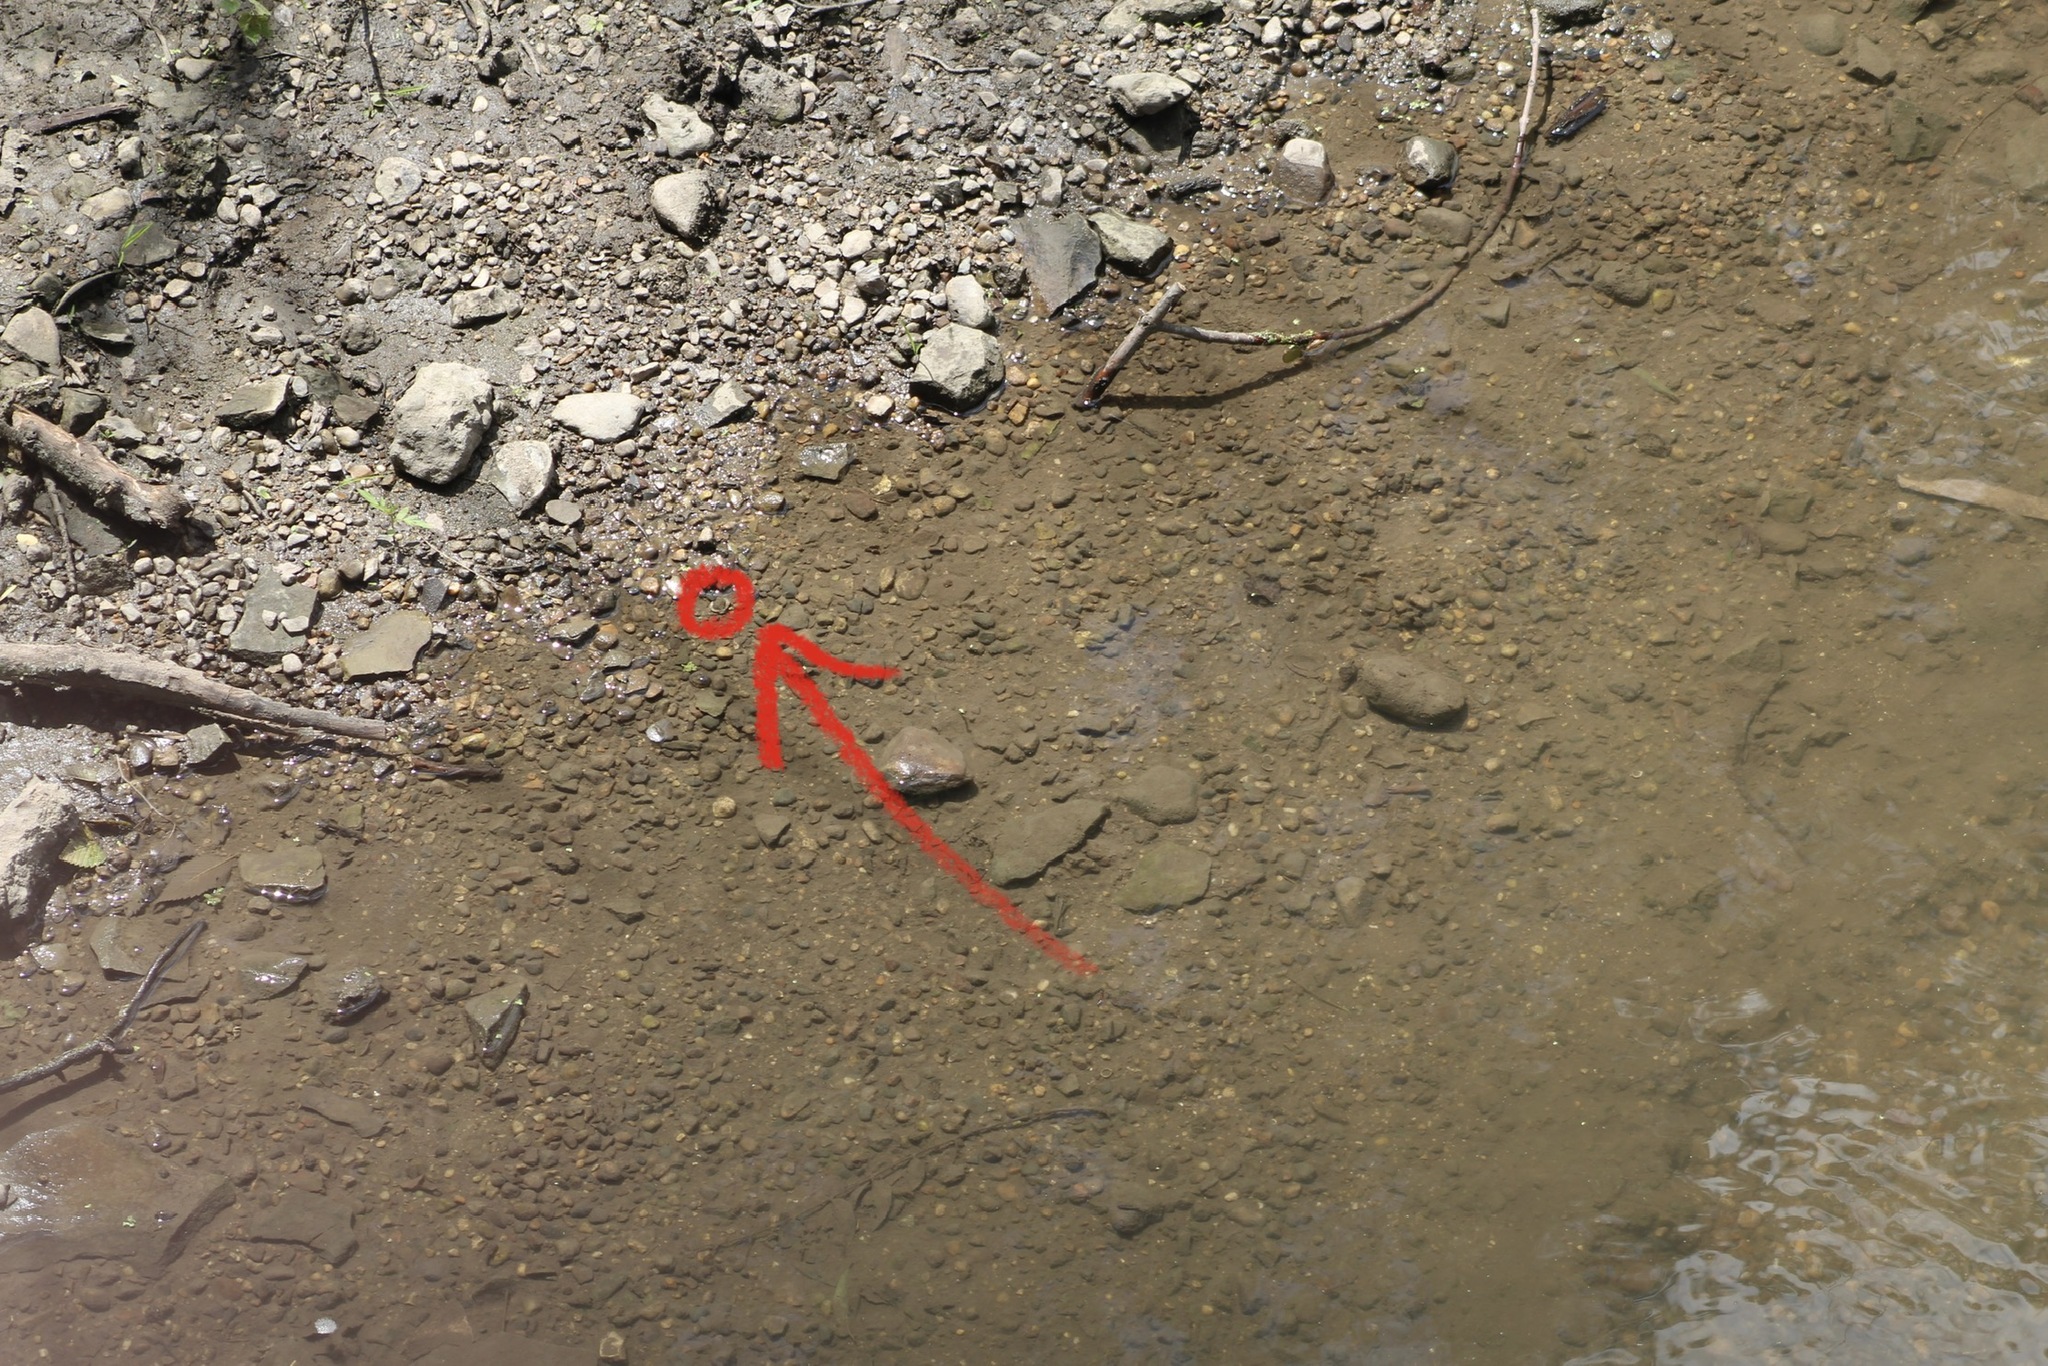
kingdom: Animalia
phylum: Mollusca
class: Bivalvia
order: Venerida
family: Cyrenidae
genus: Corbicula
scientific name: Corbicula fluminea
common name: Asian clam
